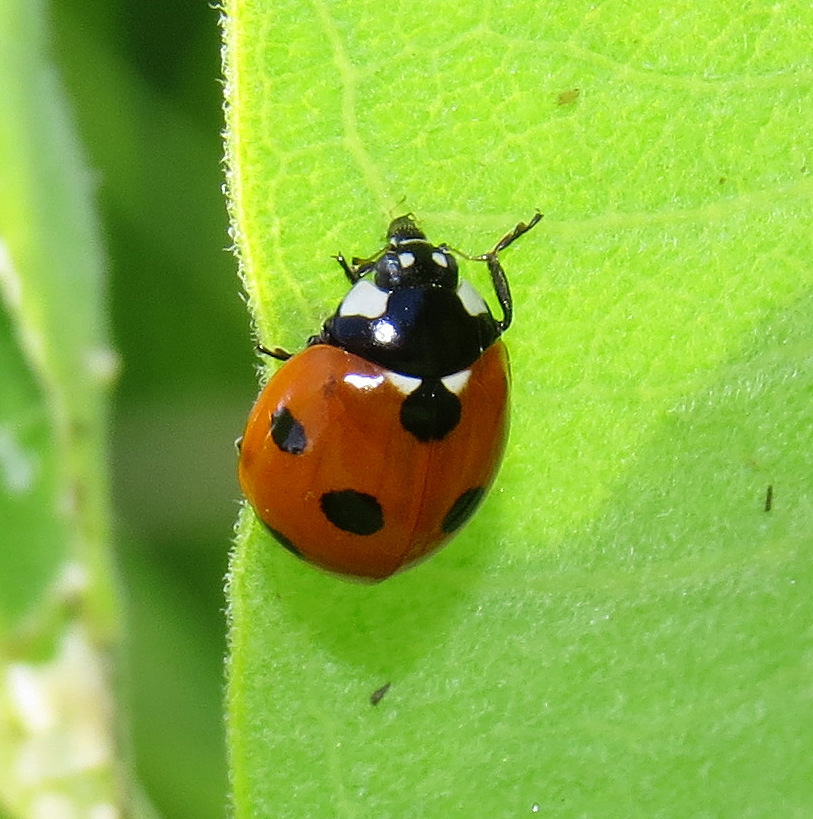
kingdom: Animalia
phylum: Arthropoda
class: Insecta
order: Coleoptera
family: Coccinellidae
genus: Coccinella
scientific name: Coccinella septempunctata
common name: Sevenspotted lady beetle
